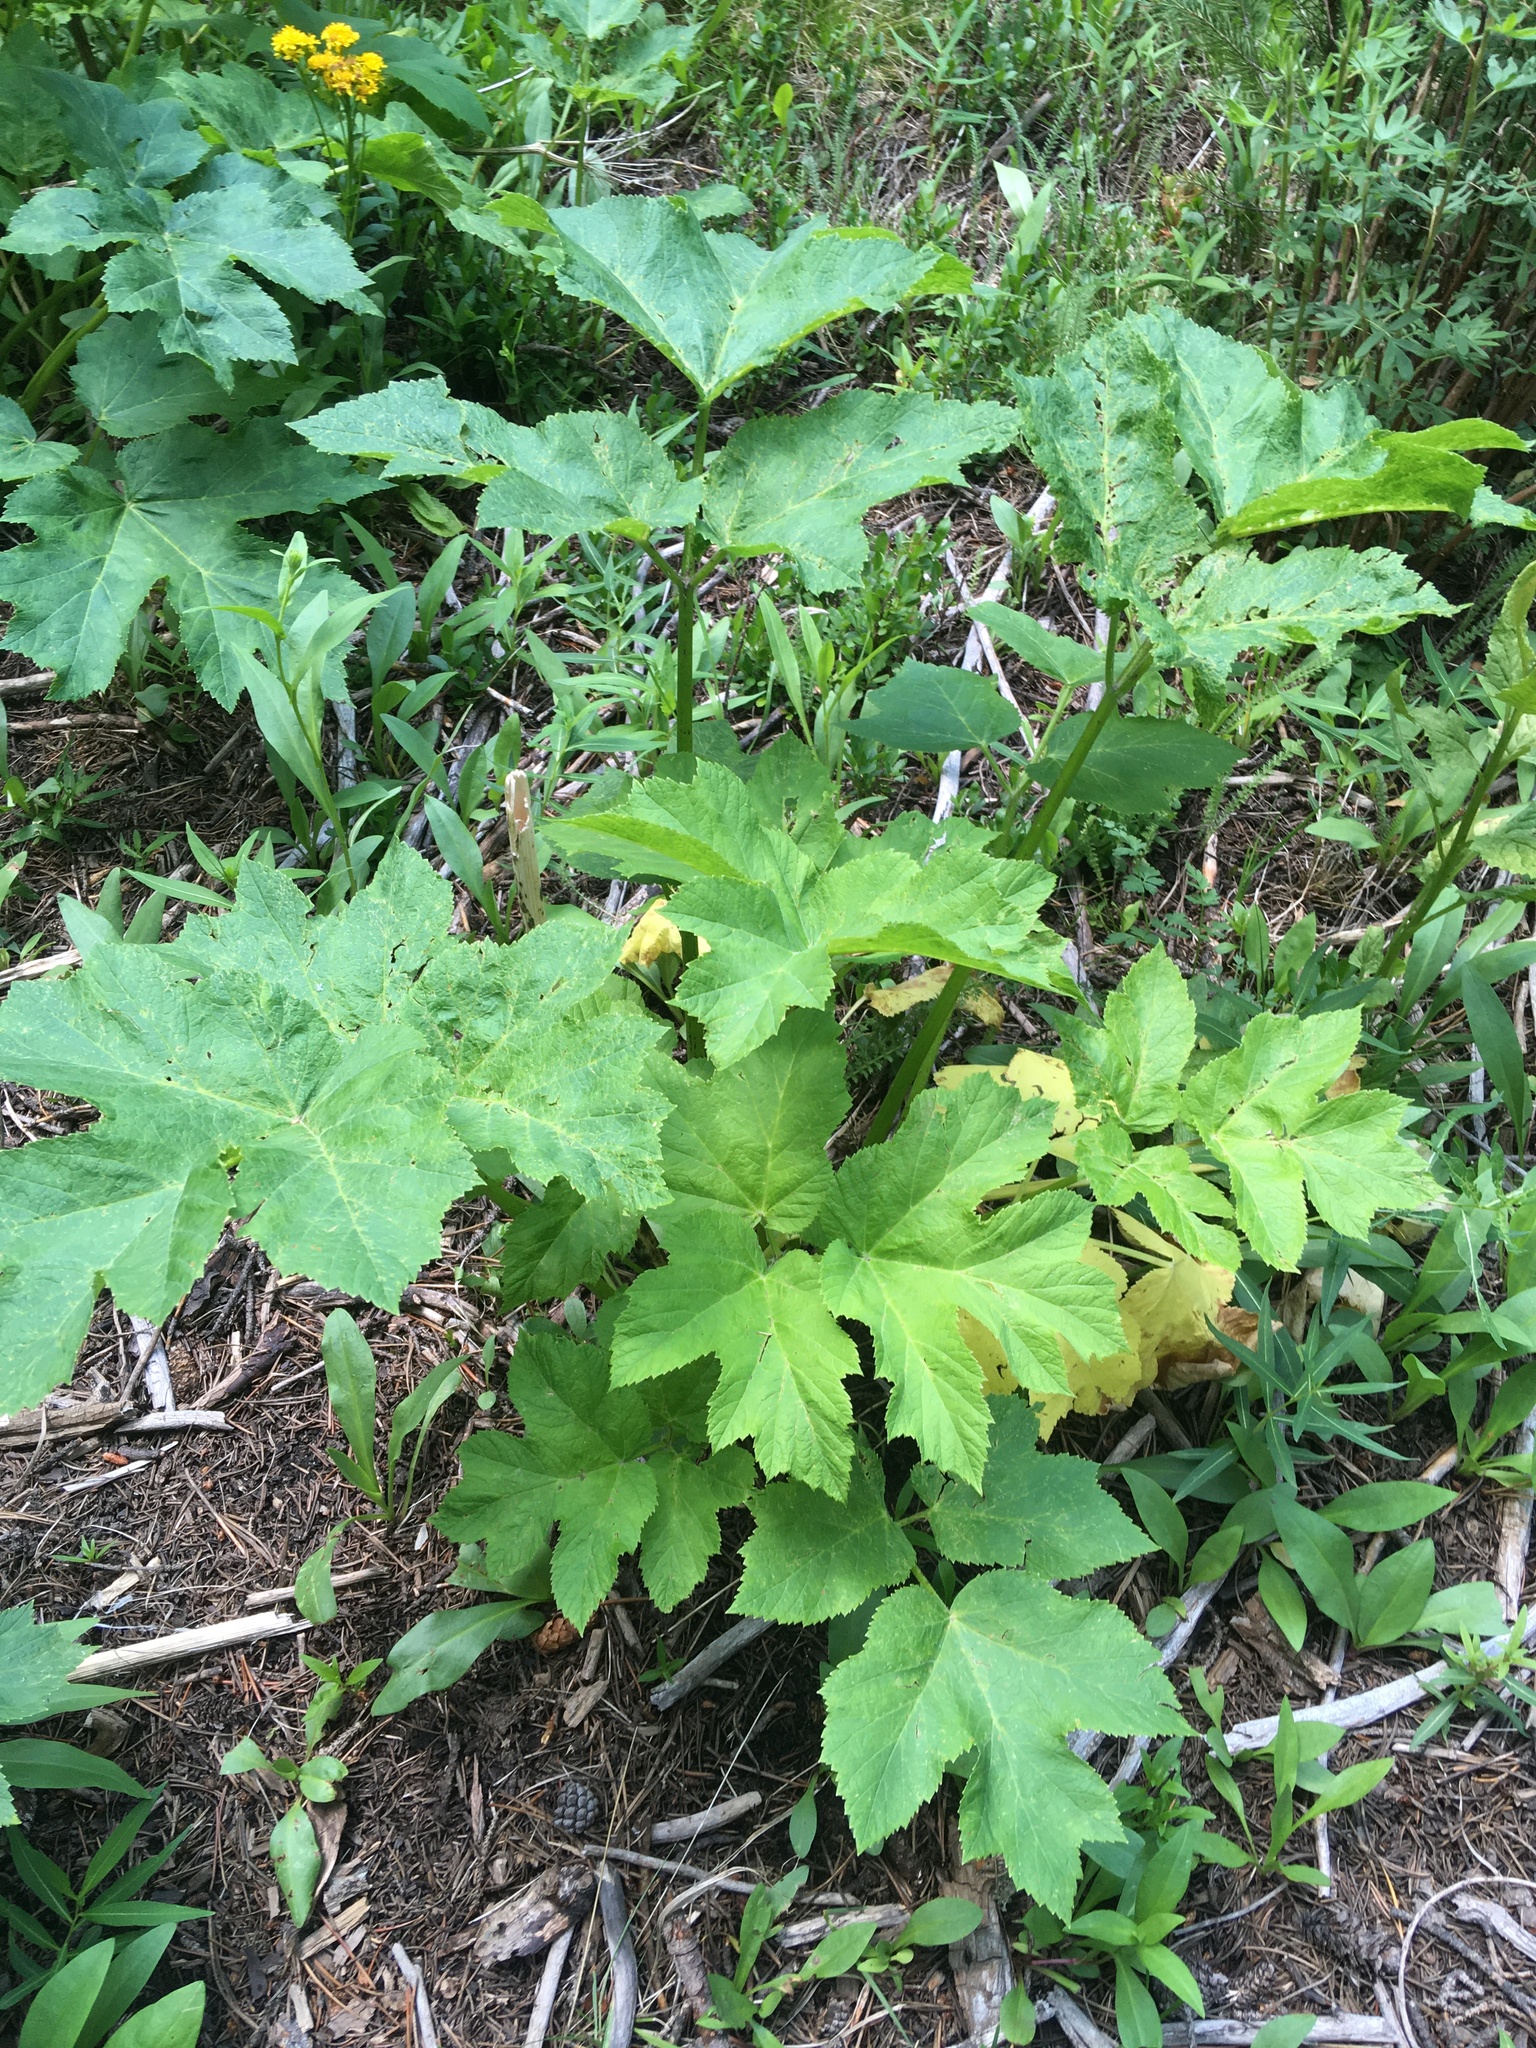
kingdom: Plantae
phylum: Tracheophyta
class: Magnoliopsida
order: Apiales
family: Apiaceae
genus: Heracleum
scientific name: Heracleum maximum
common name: American cow parsnip
